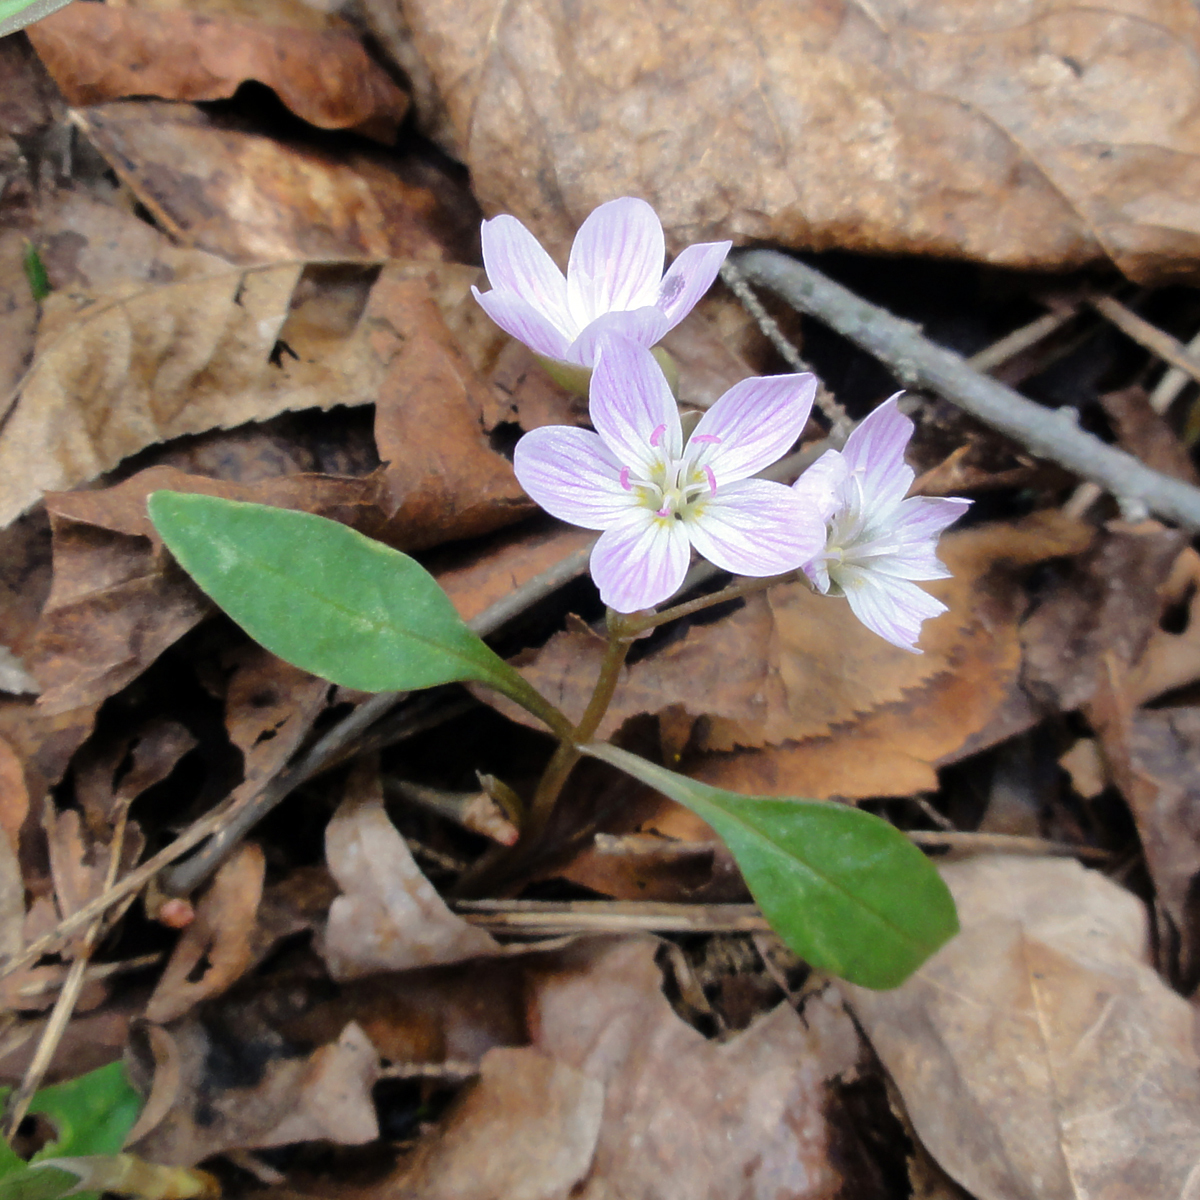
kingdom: Plantae
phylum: Tracheophyta
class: Magnoliopsida
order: Caryophyllales
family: Montiaceae
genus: Claytonia
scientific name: Claytonia caroliniana
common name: Carolina spring beauty
